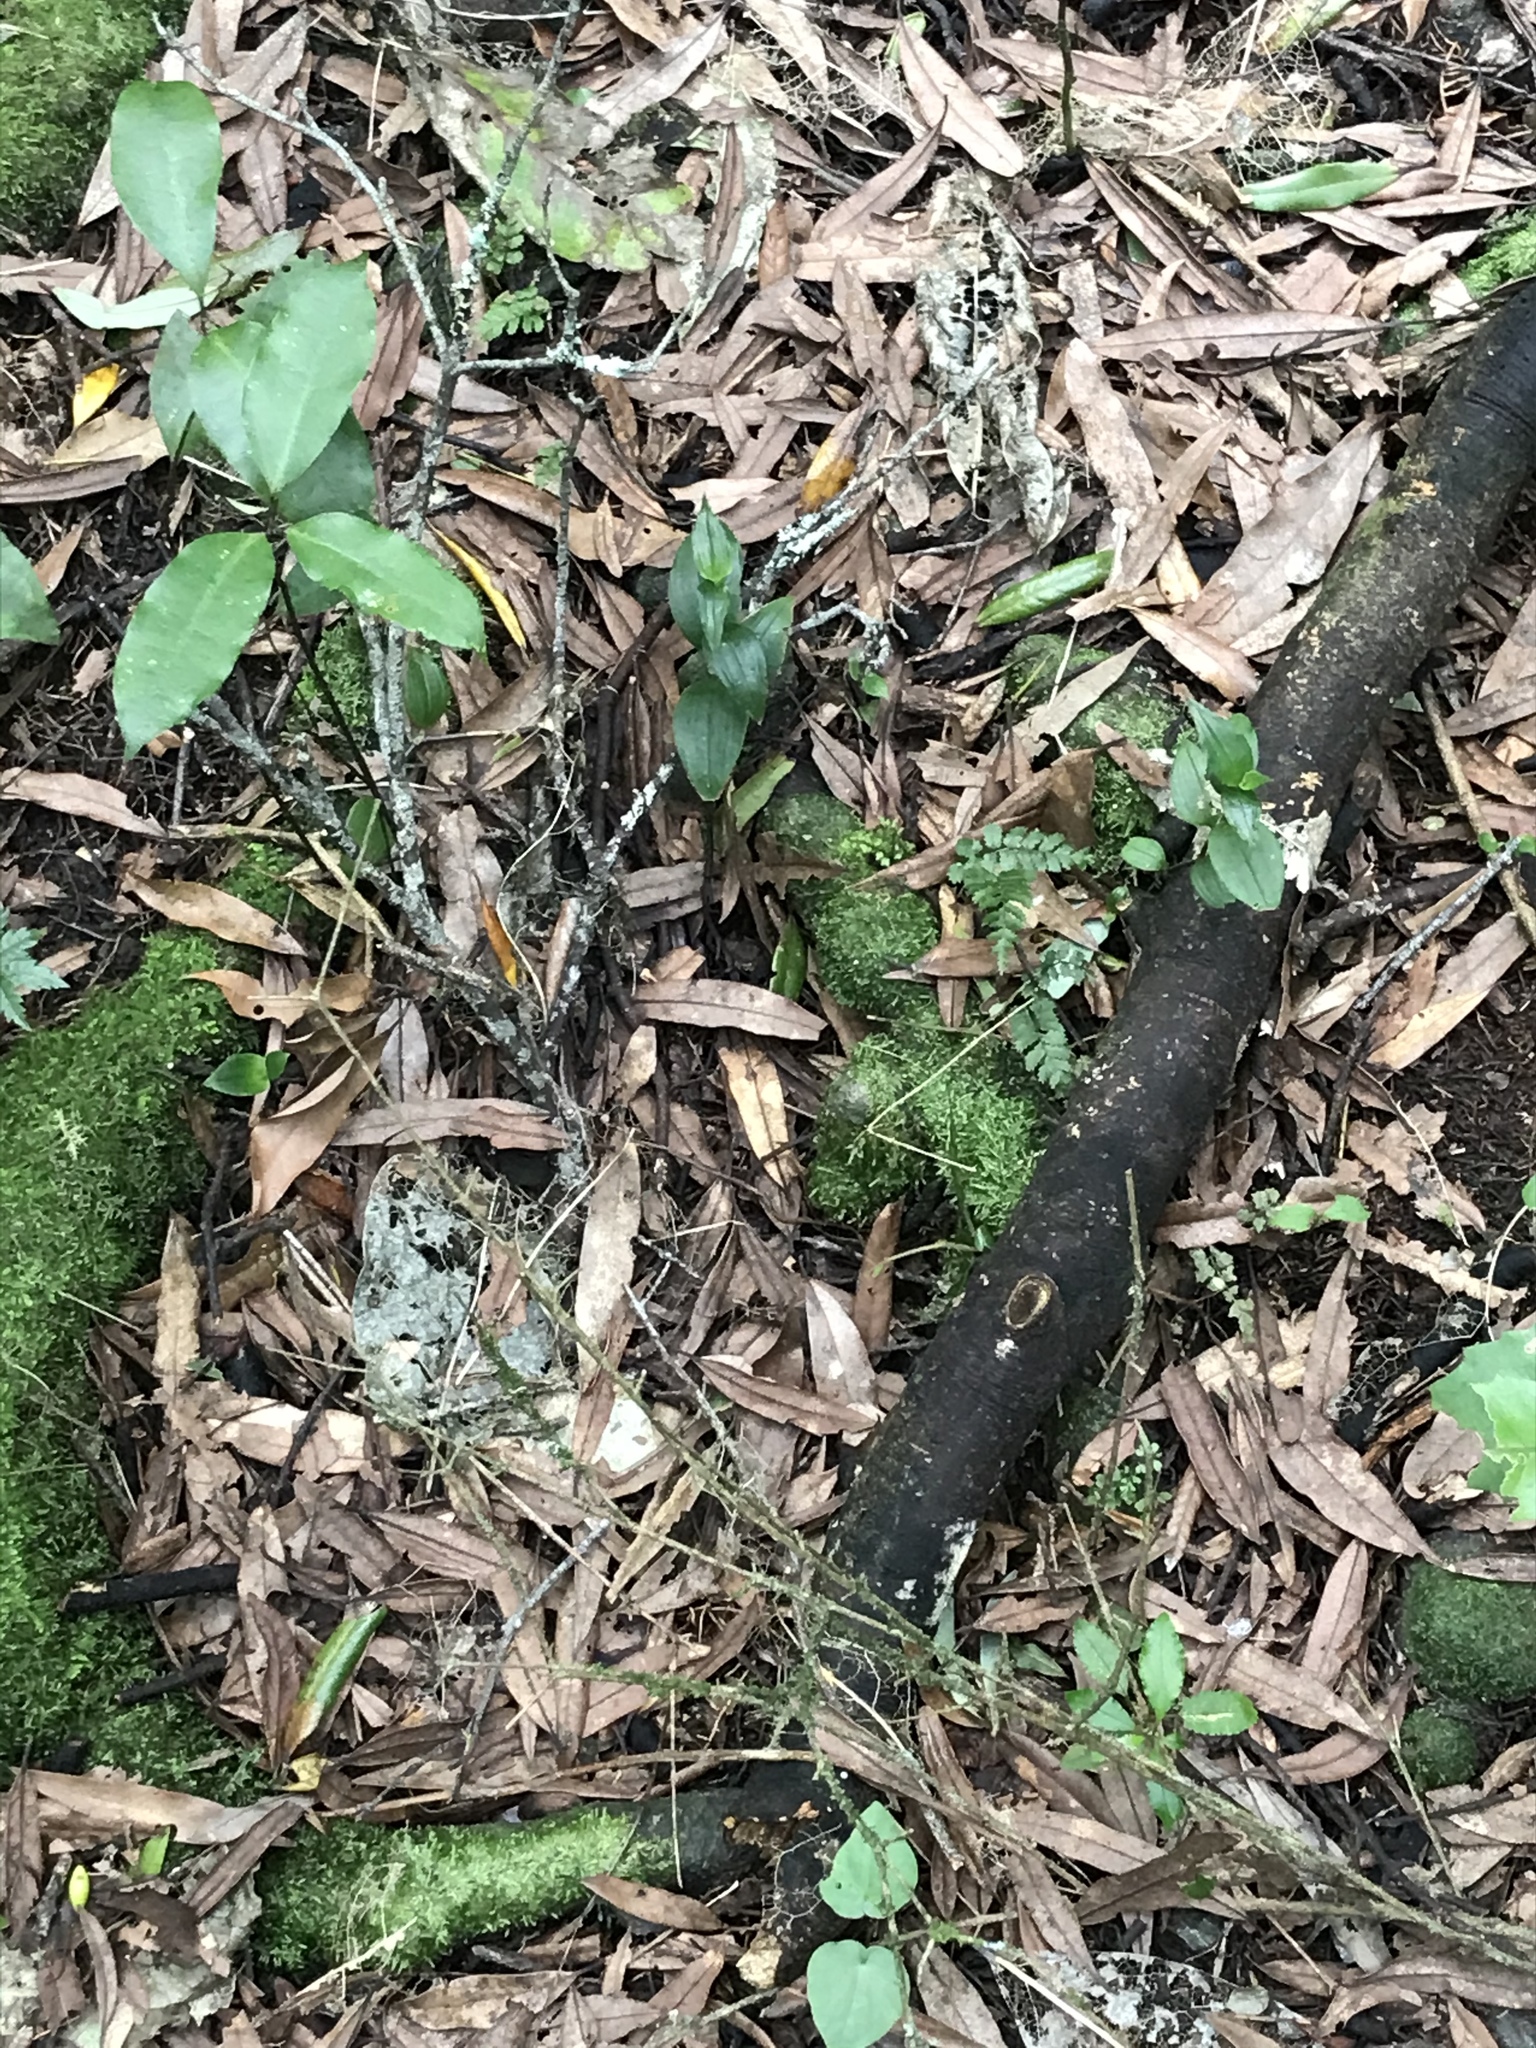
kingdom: Plantae
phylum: Tracheophyta
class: Liliopsida
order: Commelinales
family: Commelinaceae
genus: Tradescantia
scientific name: Tradescantia fluminensis
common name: Wandering-jew
